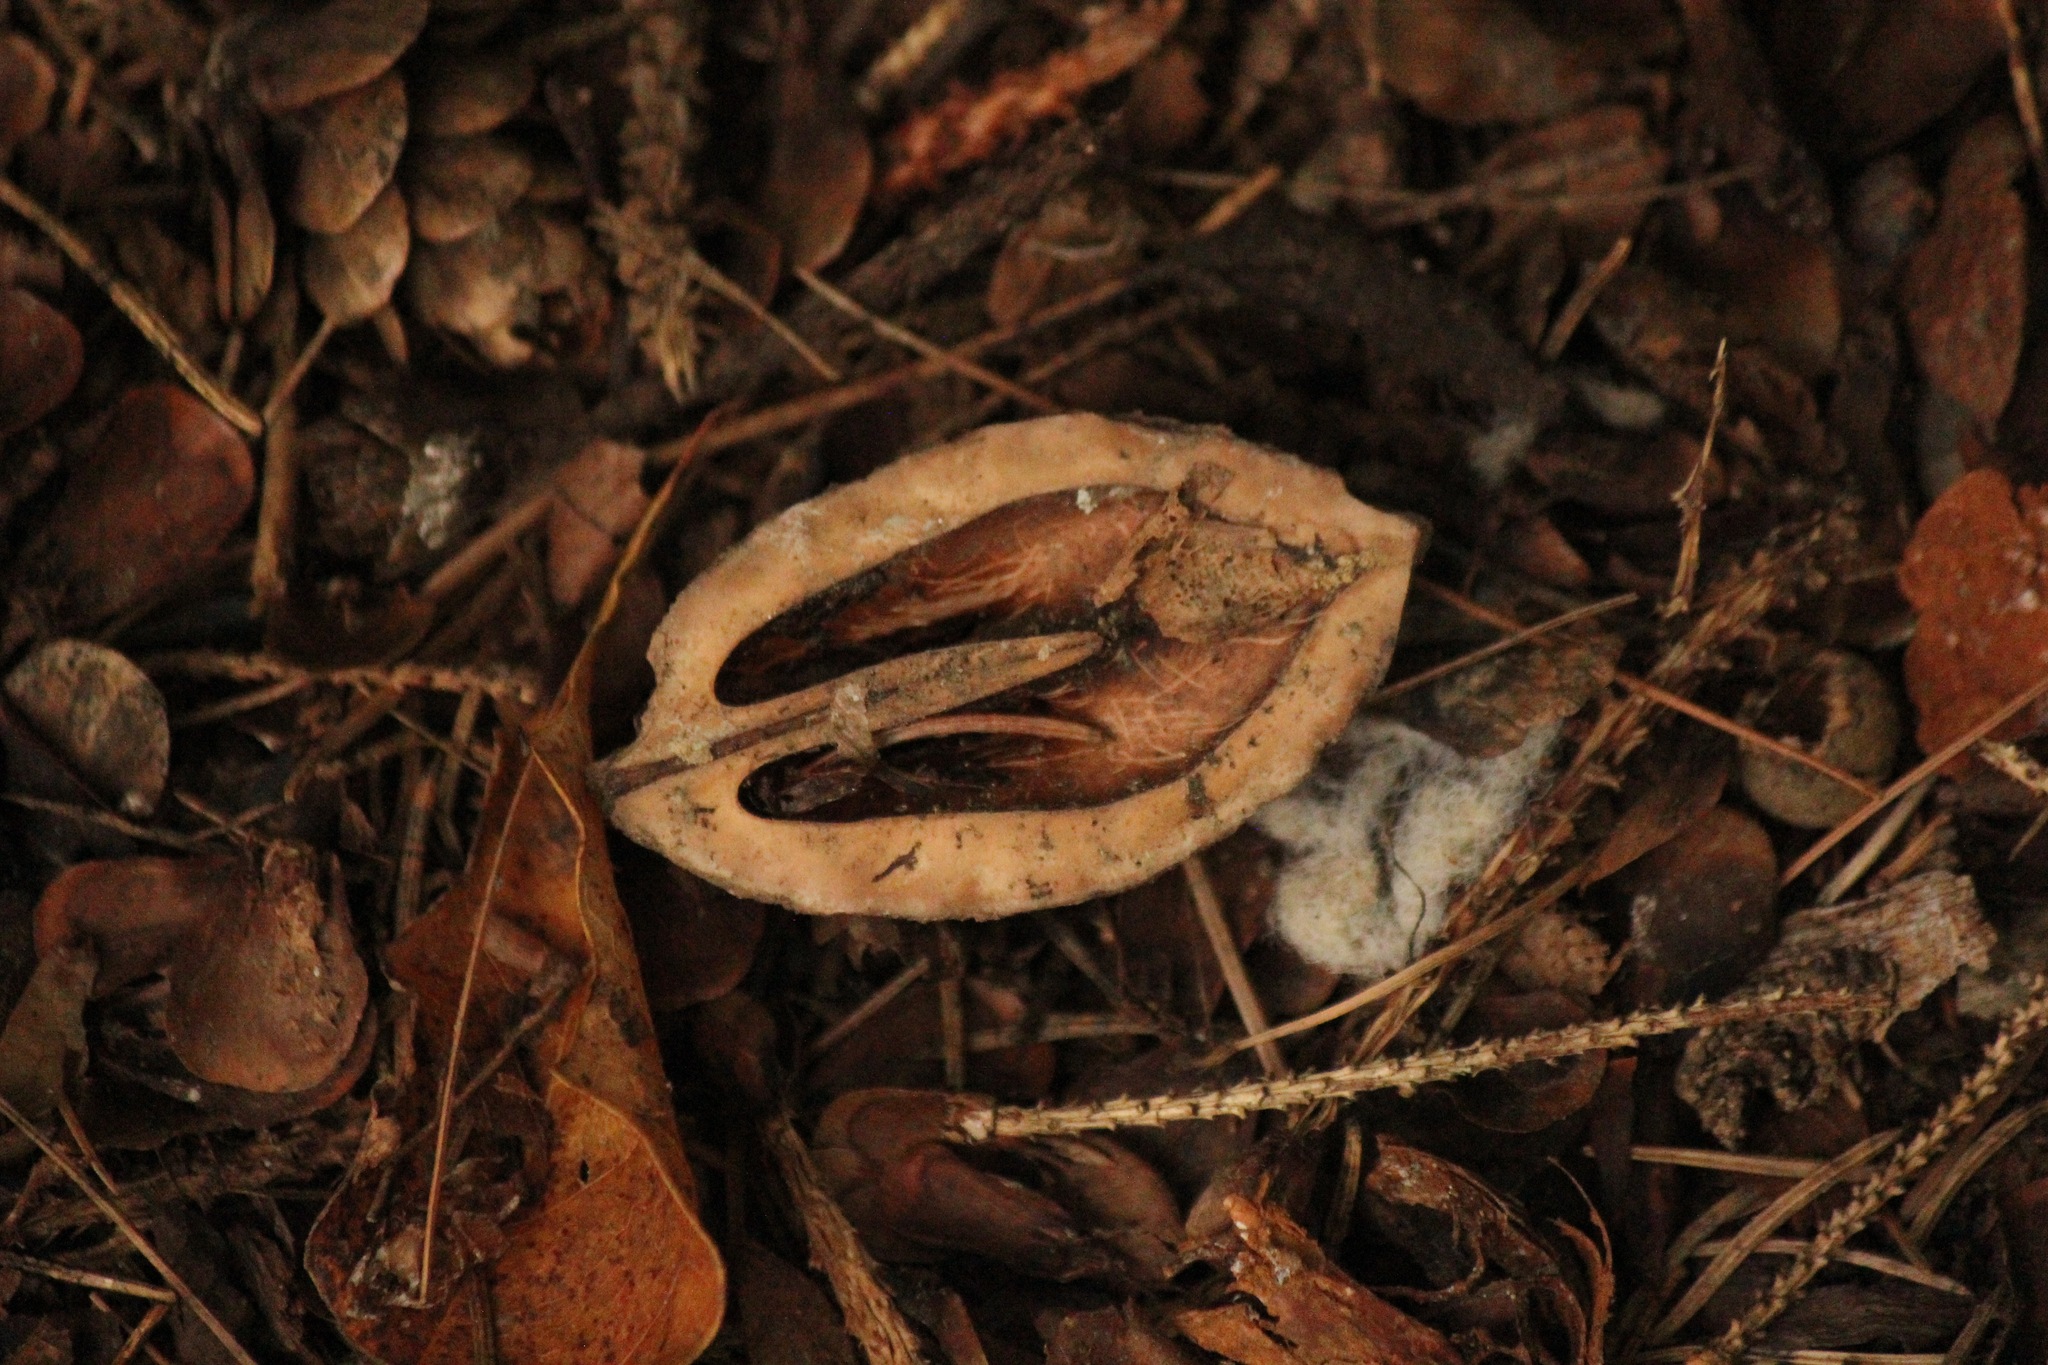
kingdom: Plantae
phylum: Tracheophyta
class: Magnoliopsida
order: Fagales
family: Juglandaceae
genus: Juglans
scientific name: Juglans cinerea
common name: Butternut
